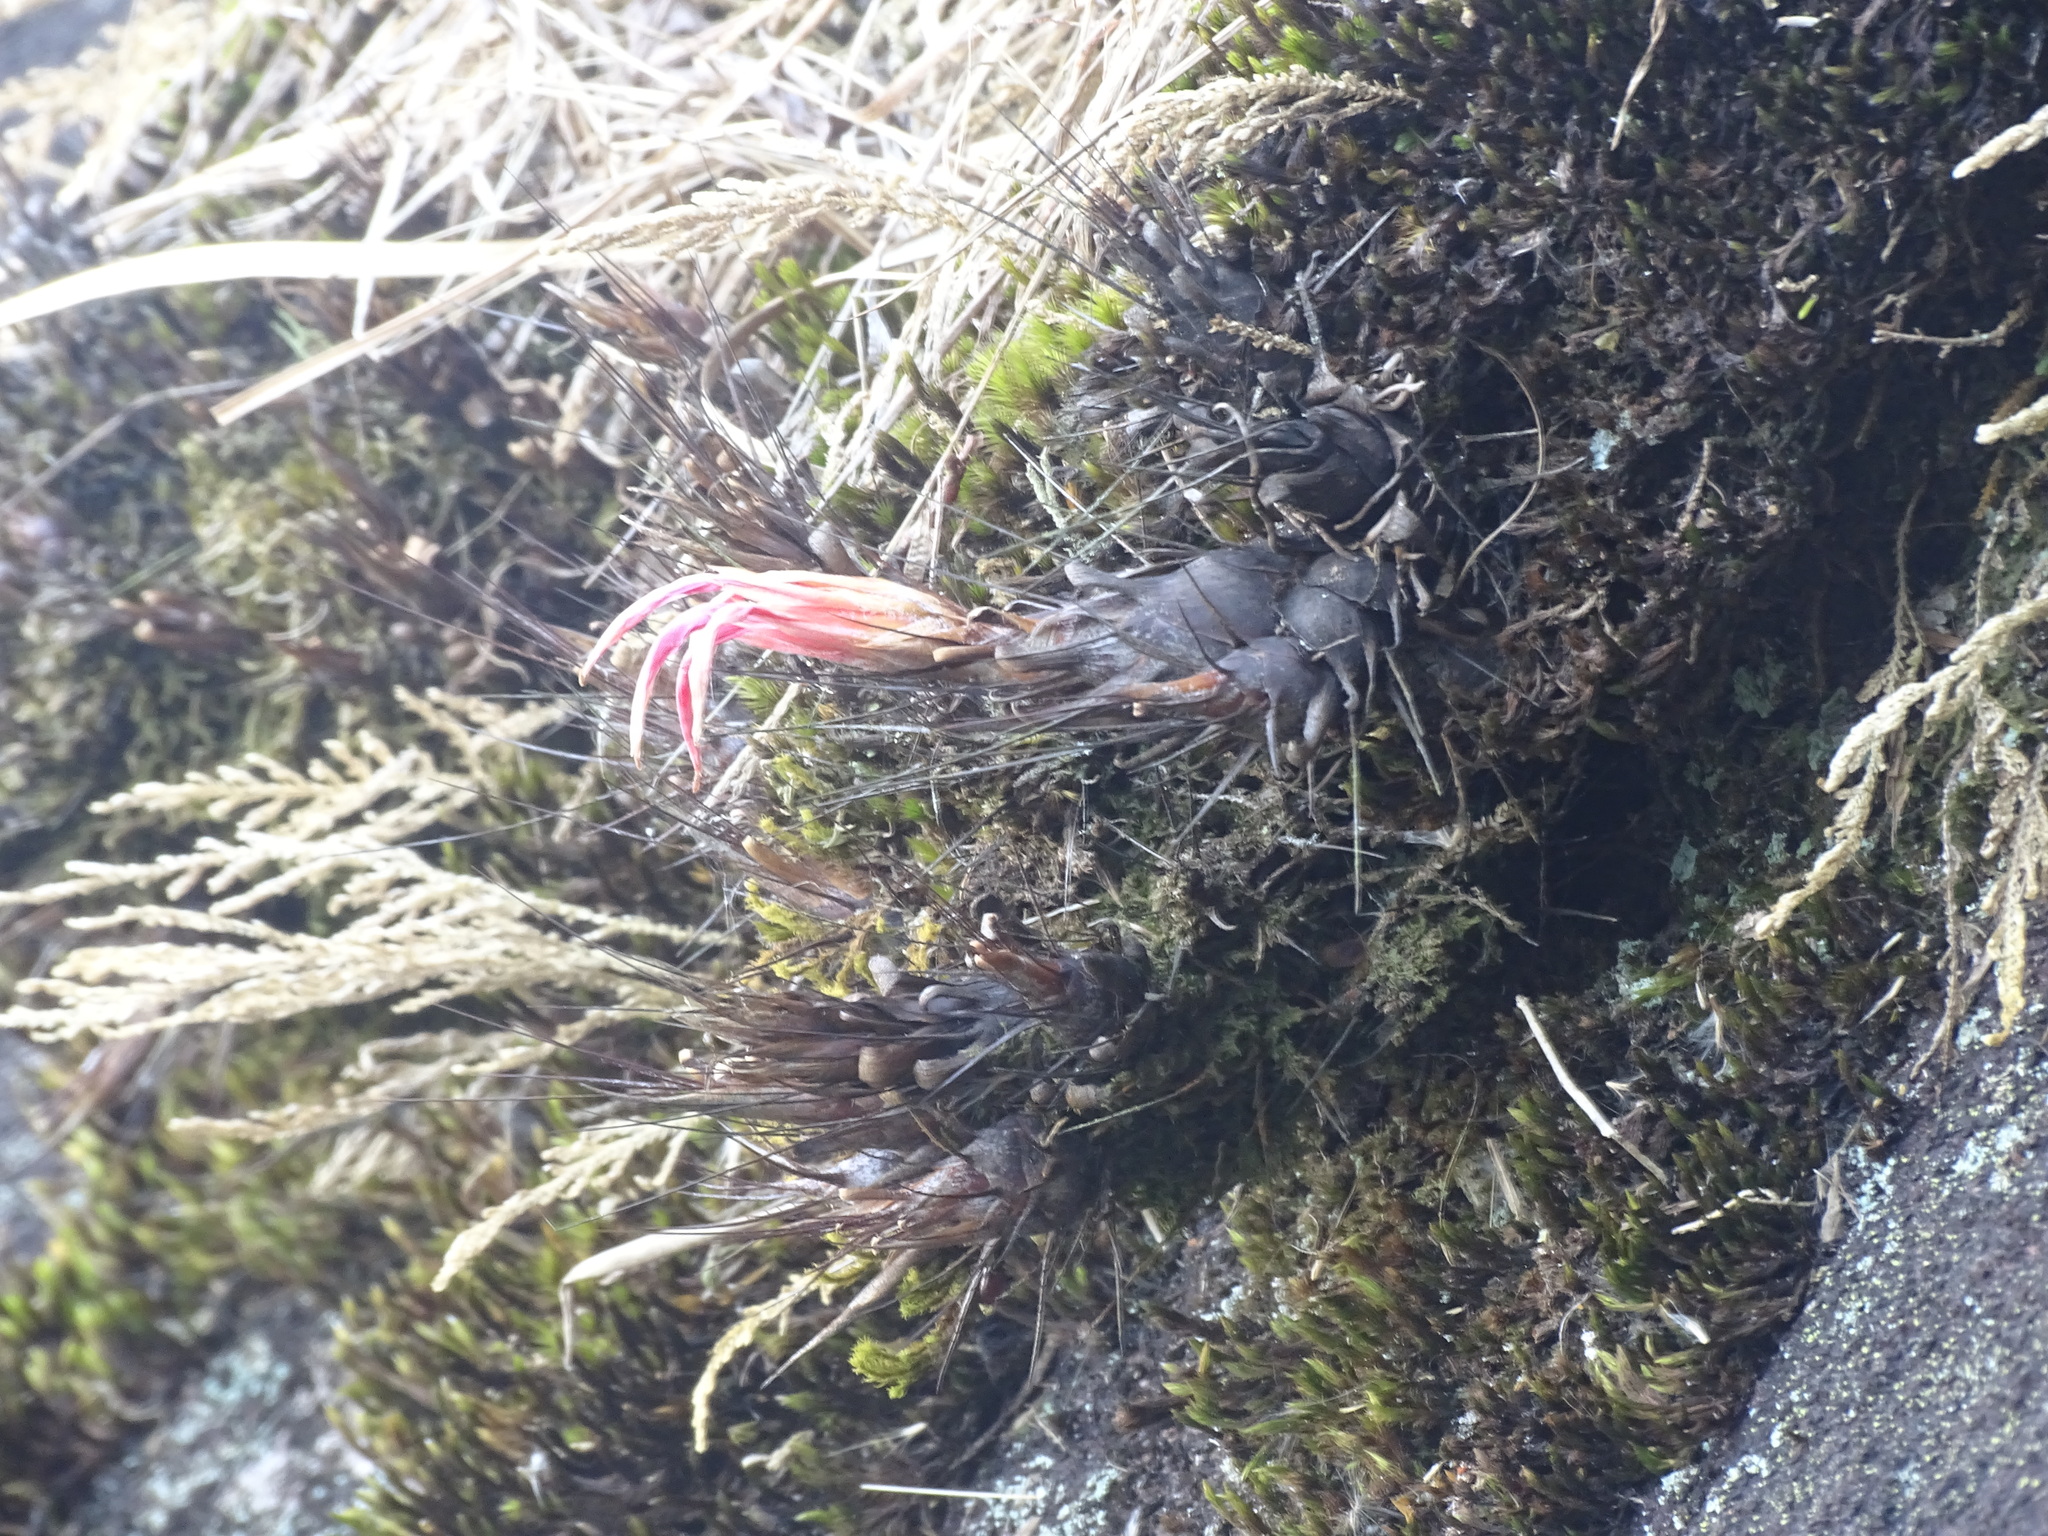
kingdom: Plantae
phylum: Tracheophyta
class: Liliopsida
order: Poales
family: Bromeliaceae
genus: Pitcairnia
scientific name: Pitcairnia heterophylla
